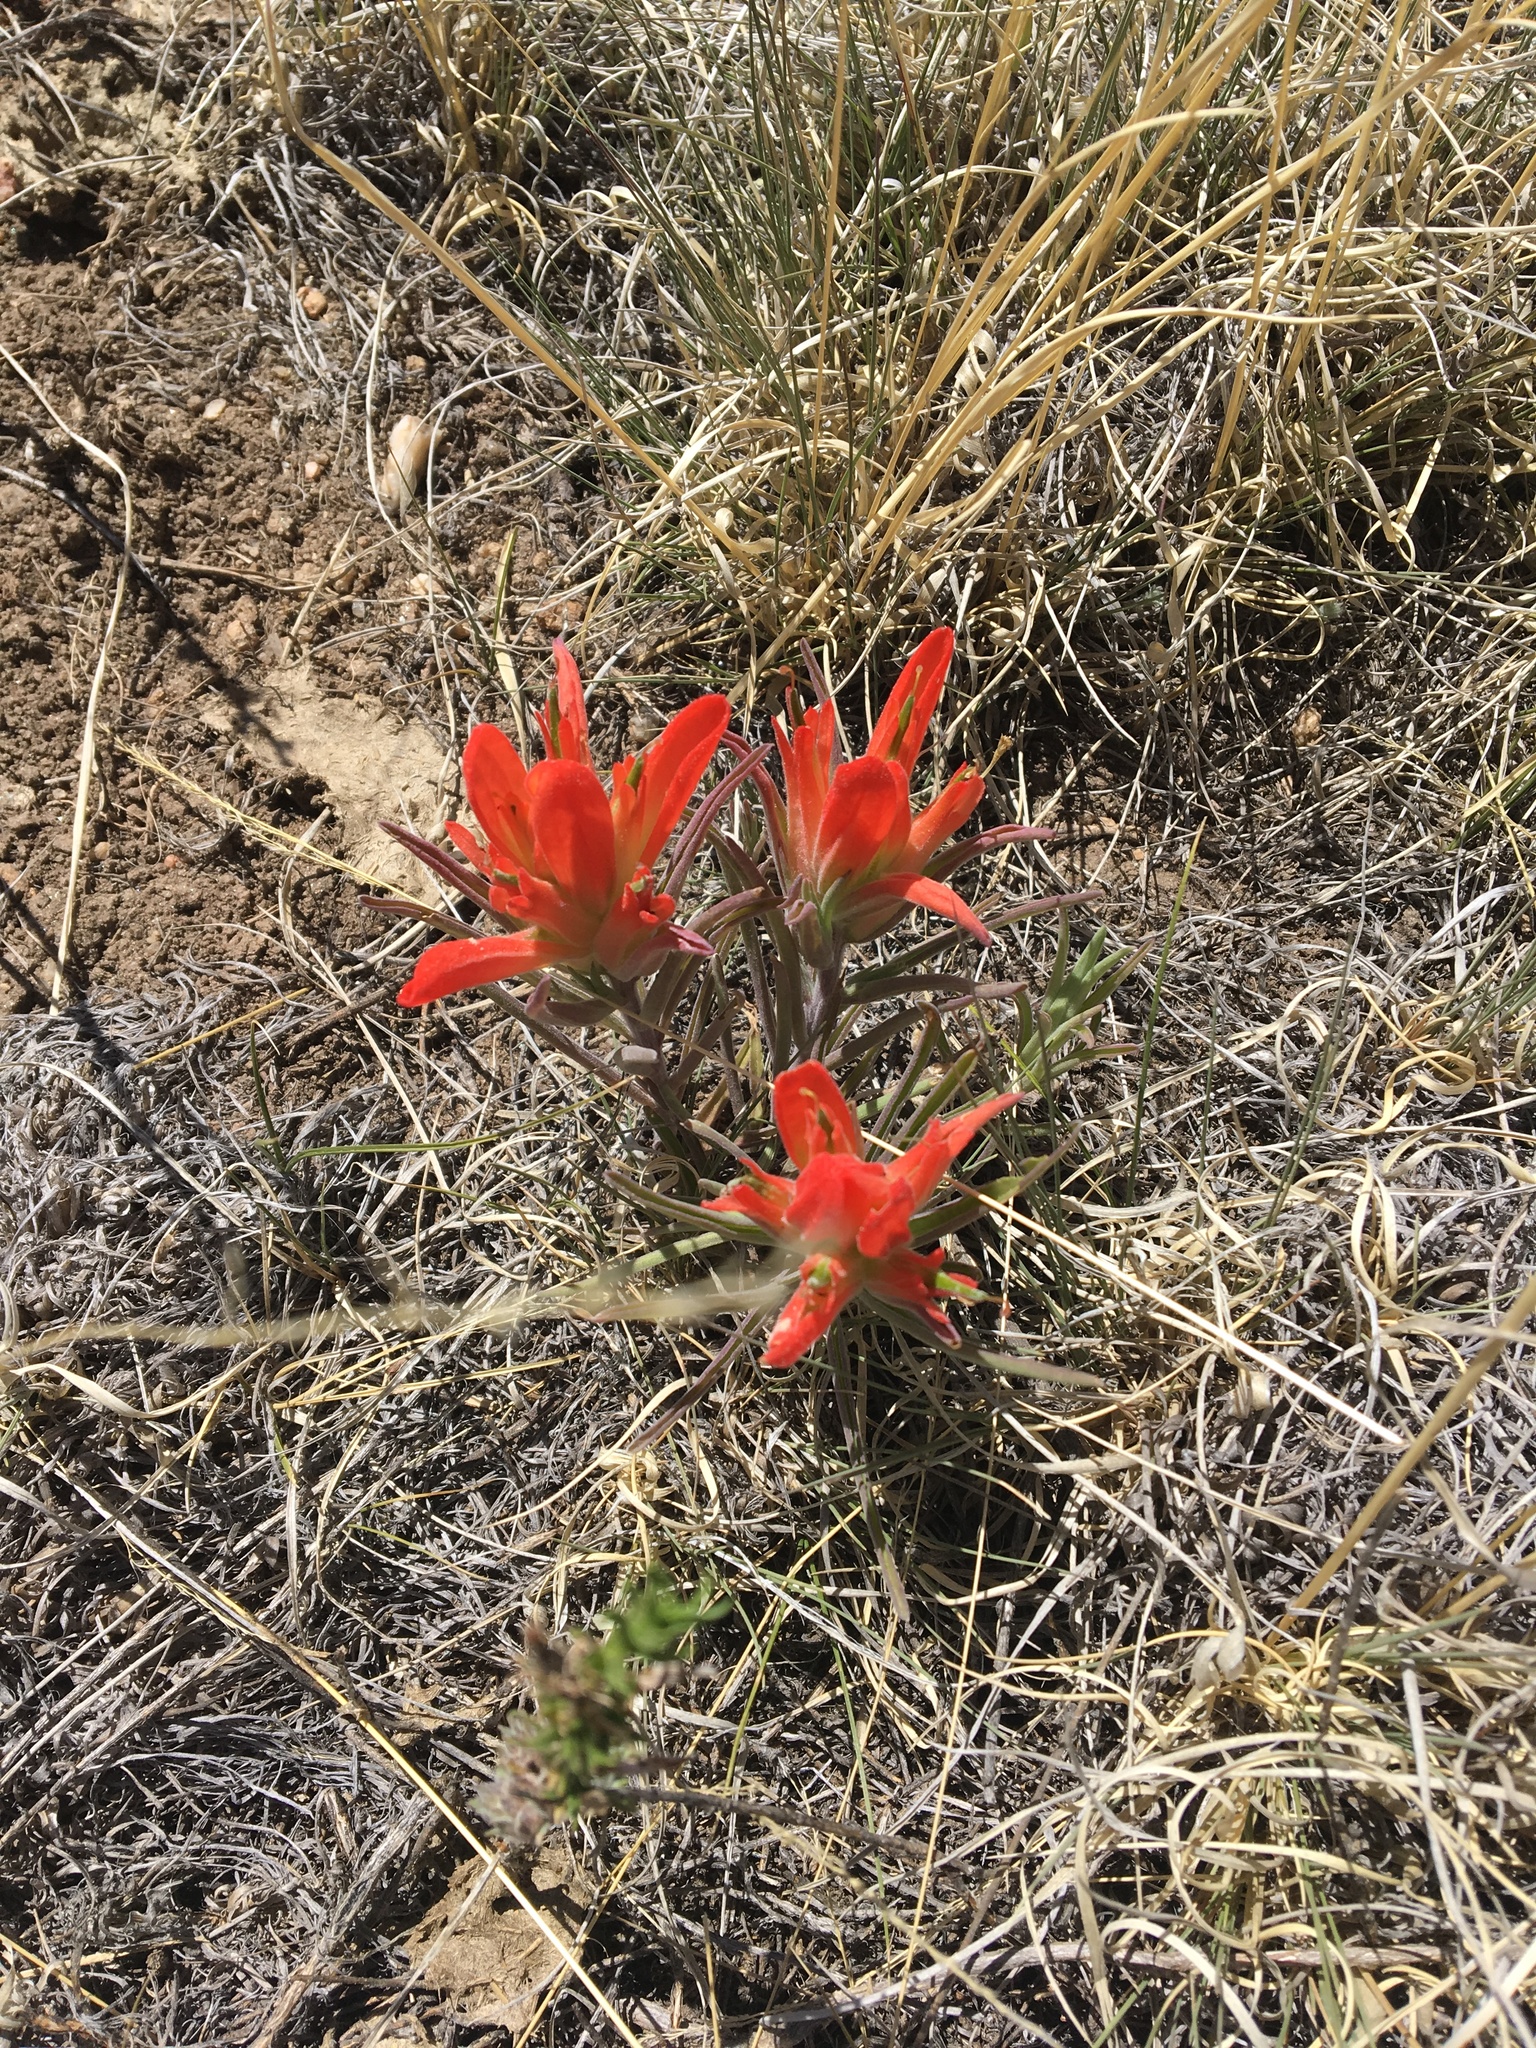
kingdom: Plantae
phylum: Tracheophyta
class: Magnoliopsida
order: Lamiales
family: Orobanchaceae
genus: Castilleja
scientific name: Castilleja integra
